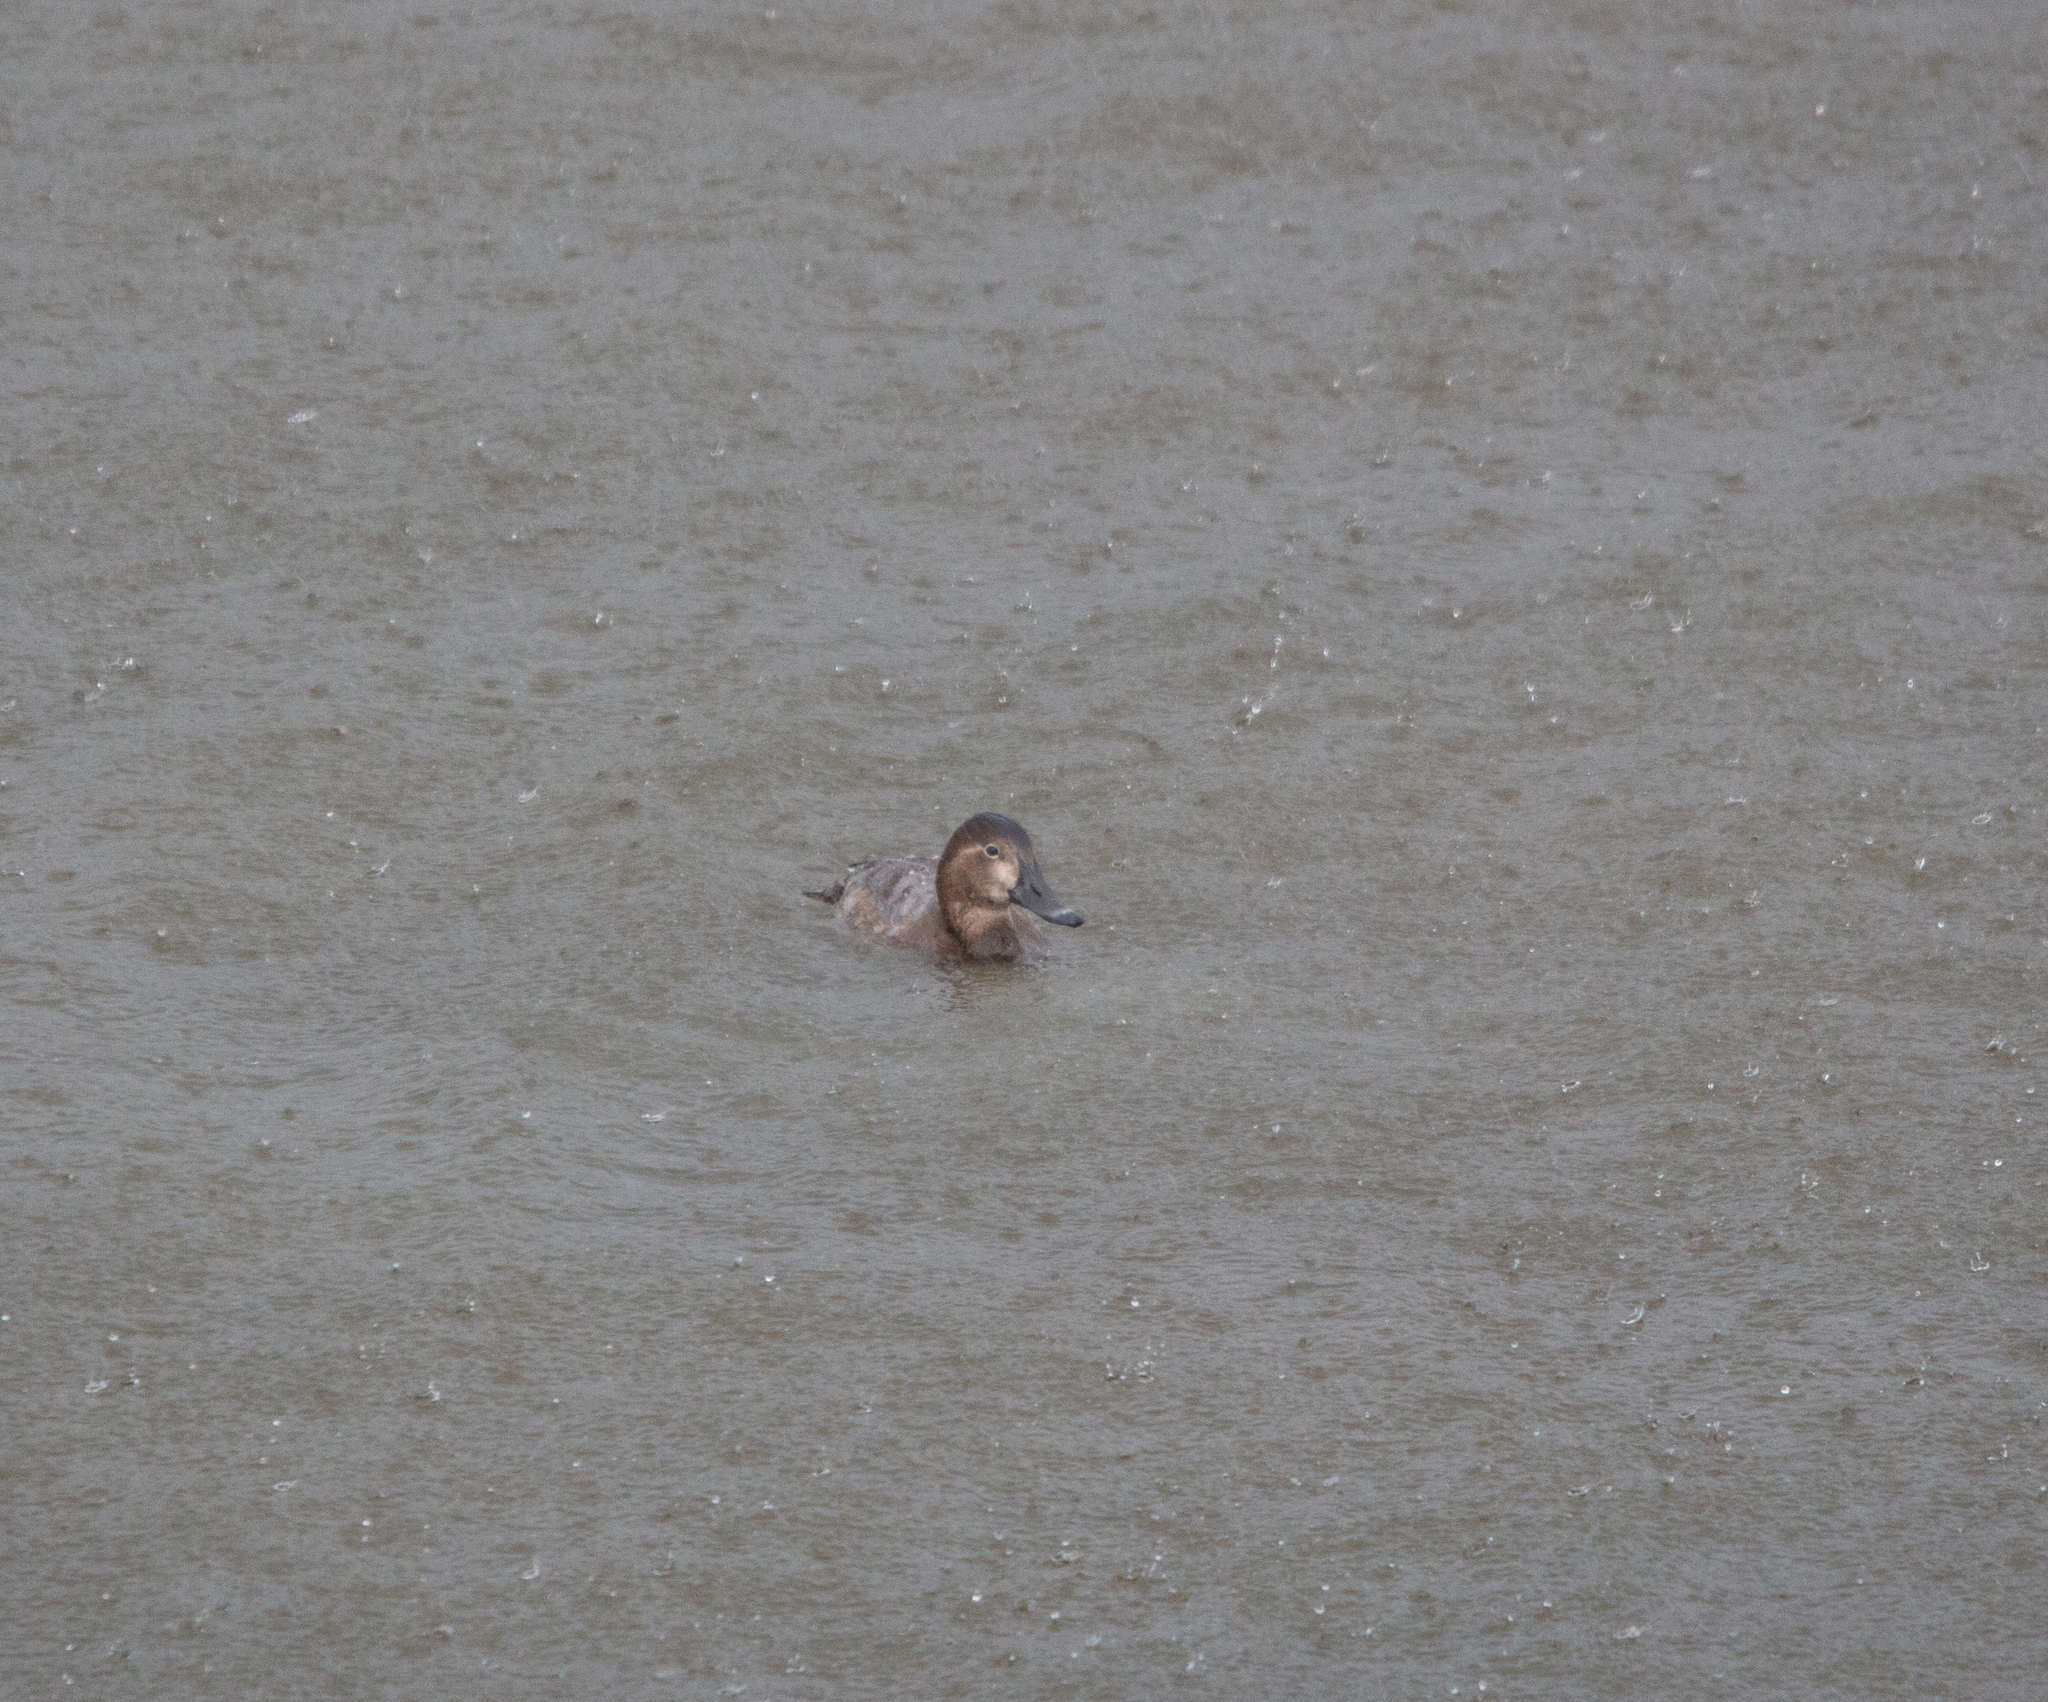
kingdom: Animalia
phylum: Chordata
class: Aves
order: Anseriformes
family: Anatidae
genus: Aythya
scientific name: Aythya ferina
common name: Common pochard
